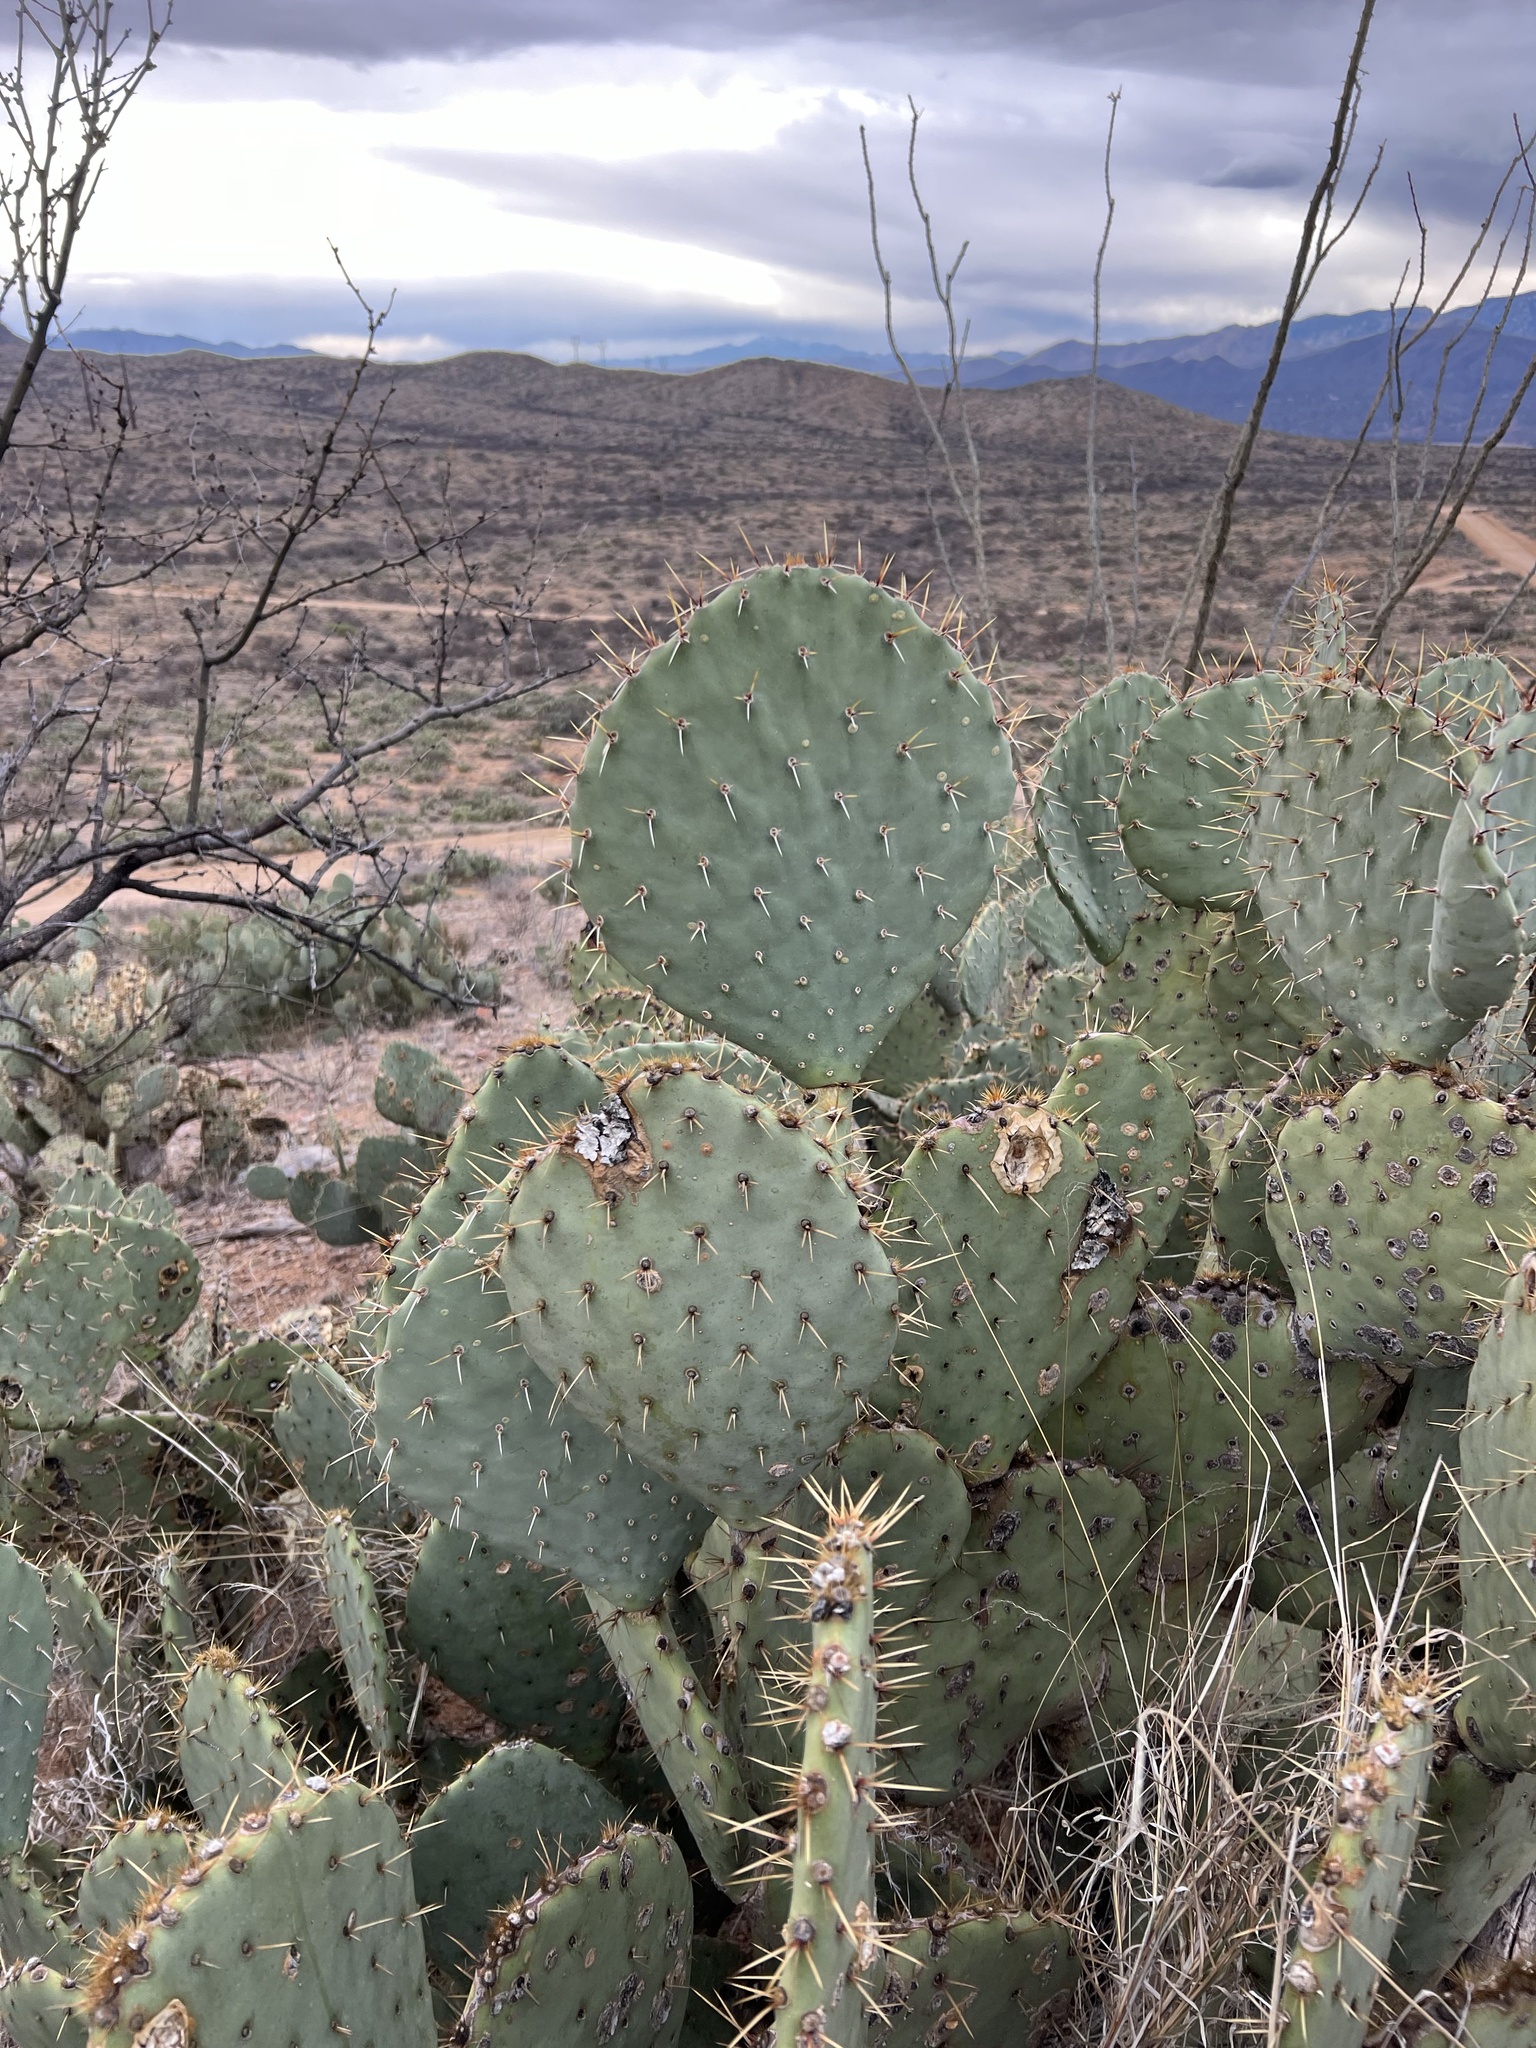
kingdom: Plantae
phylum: Tracheophyta
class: Magnoliopsida
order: Caryophyllales
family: Cactaceae
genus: Opuntia
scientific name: Opuntia engelmannii
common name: Cactus-apple
